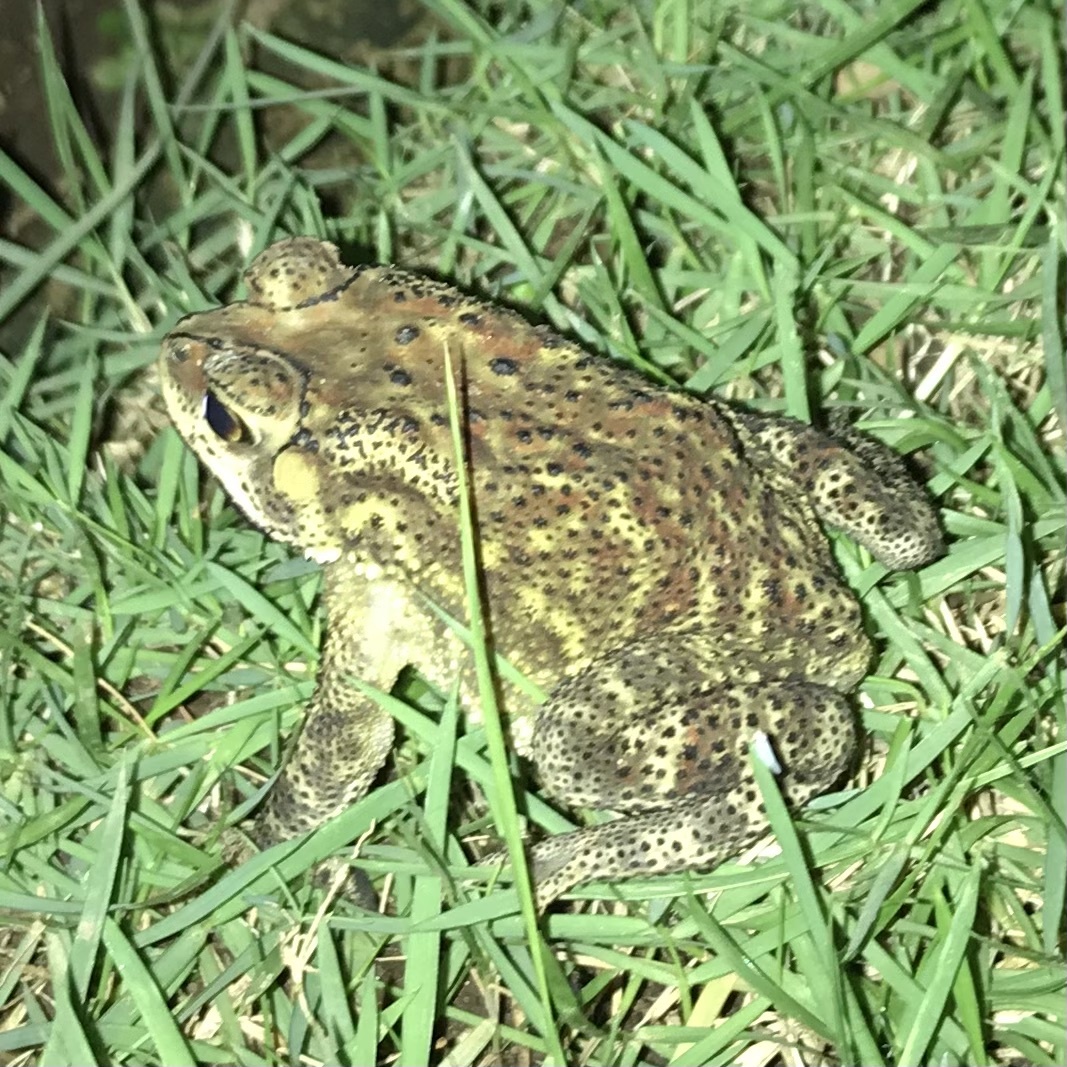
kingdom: Animalia
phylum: Chordata
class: Amphibia
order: Anura
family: Bufonidae
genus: Duttaphrynus
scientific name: Duttaphrynus melanostictus
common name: Common sunda toad
